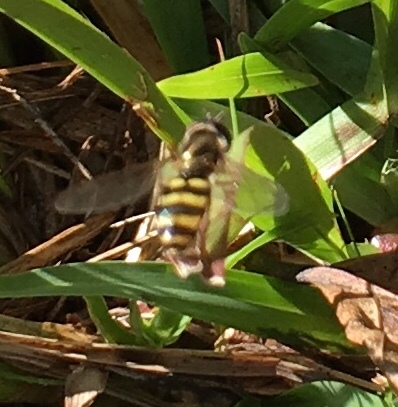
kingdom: Animalia
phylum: Arthropoda
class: Insecta
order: Diptera
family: Syrphidae
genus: Eupeodes
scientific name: Eupeodes
